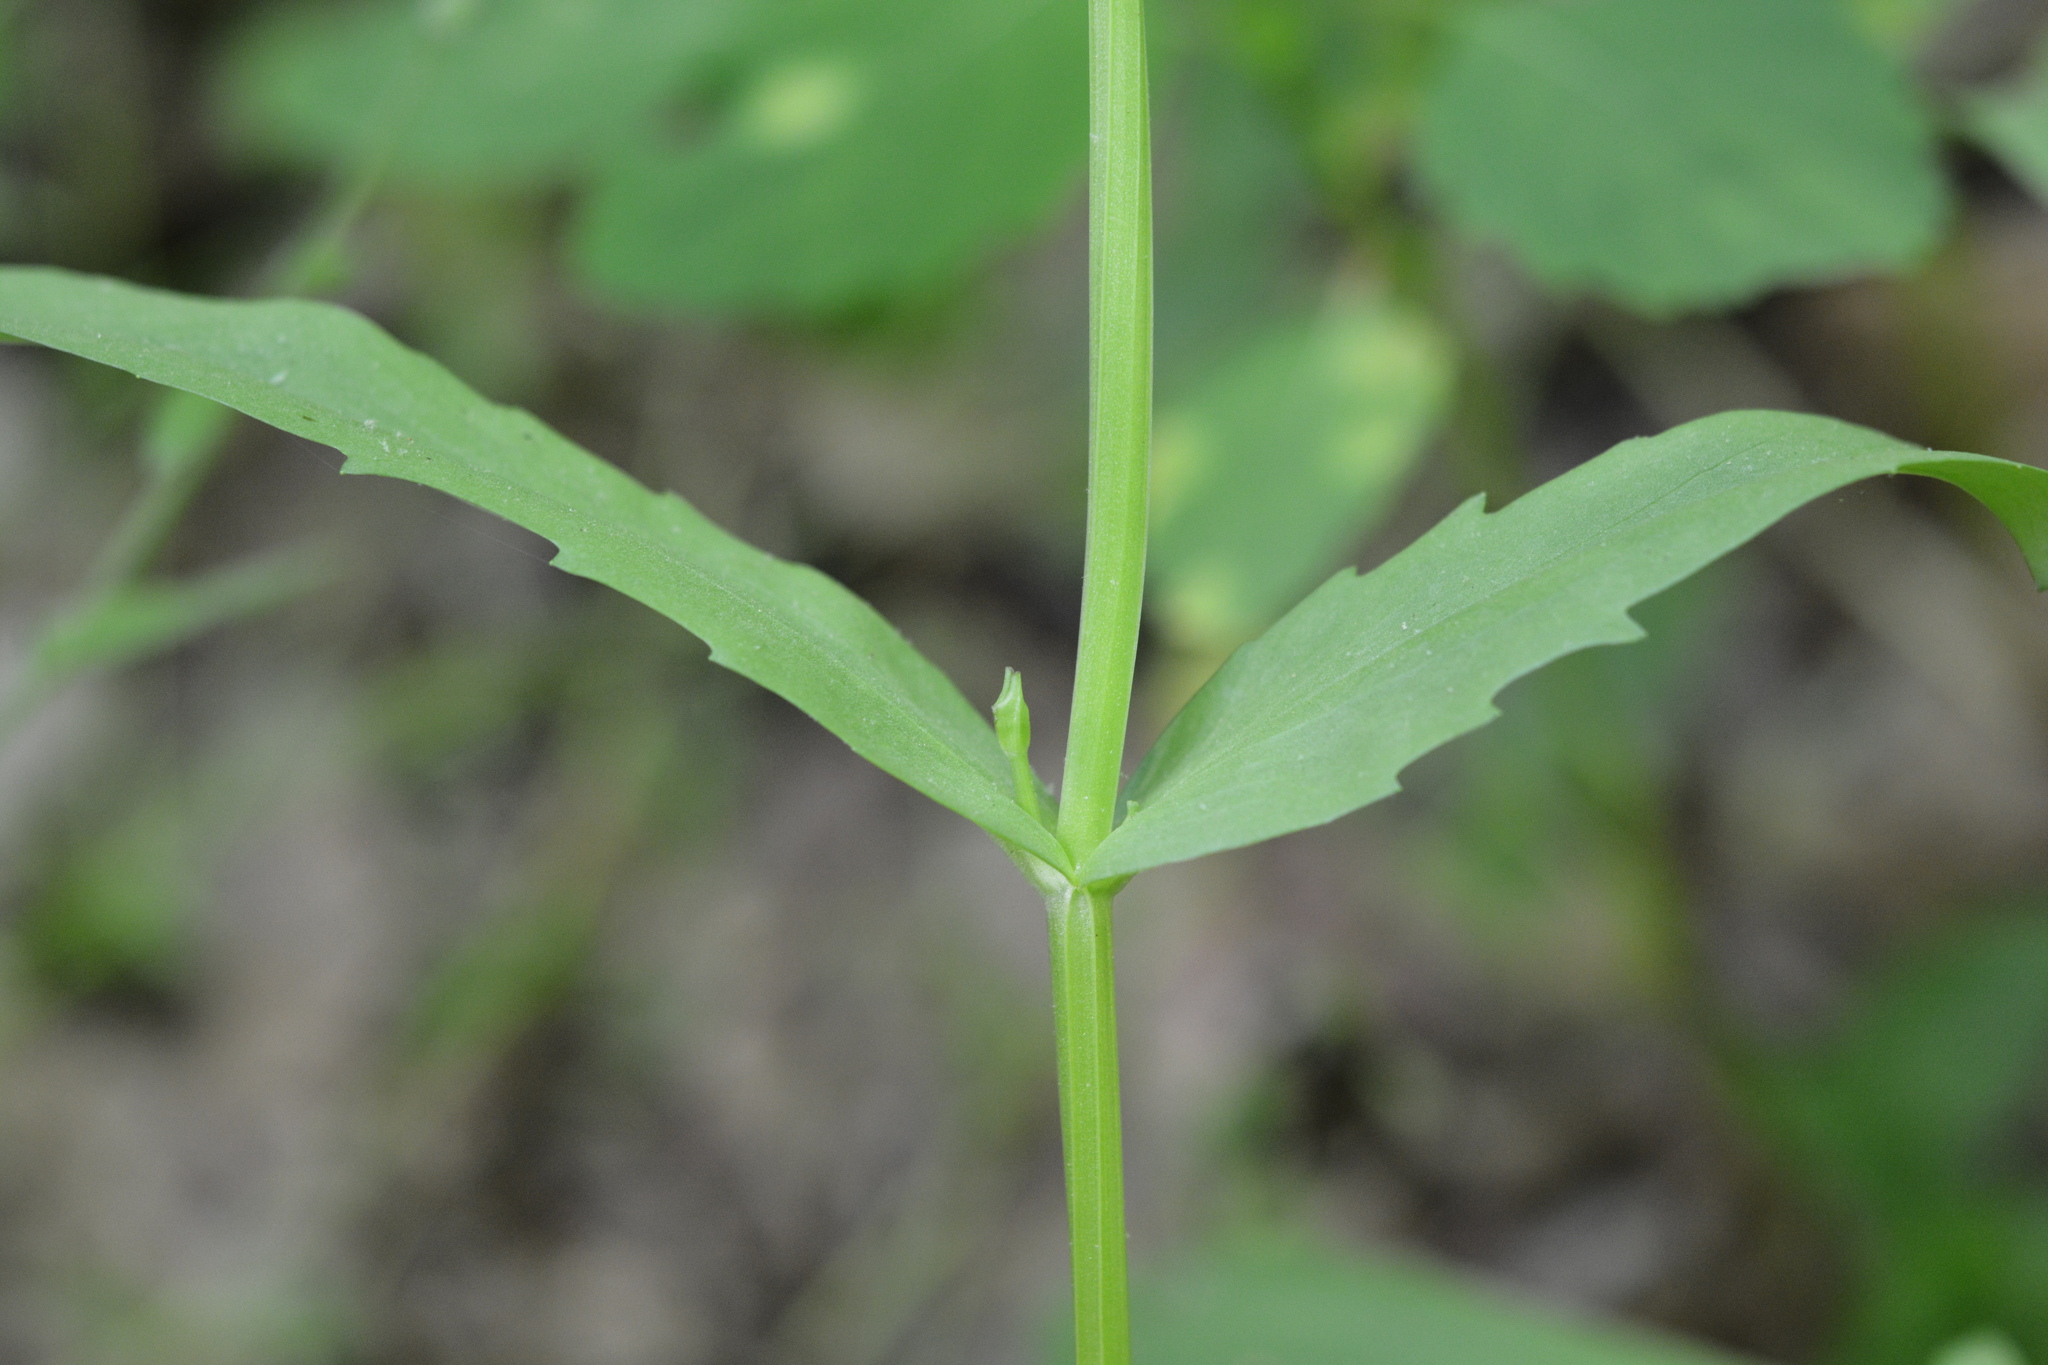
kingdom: Plantae
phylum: Tracheophyta
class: Magnoliopsida
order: Dipsacales
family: Caprifoliaceae
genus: Valerianella
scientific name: Valerianella radiata
